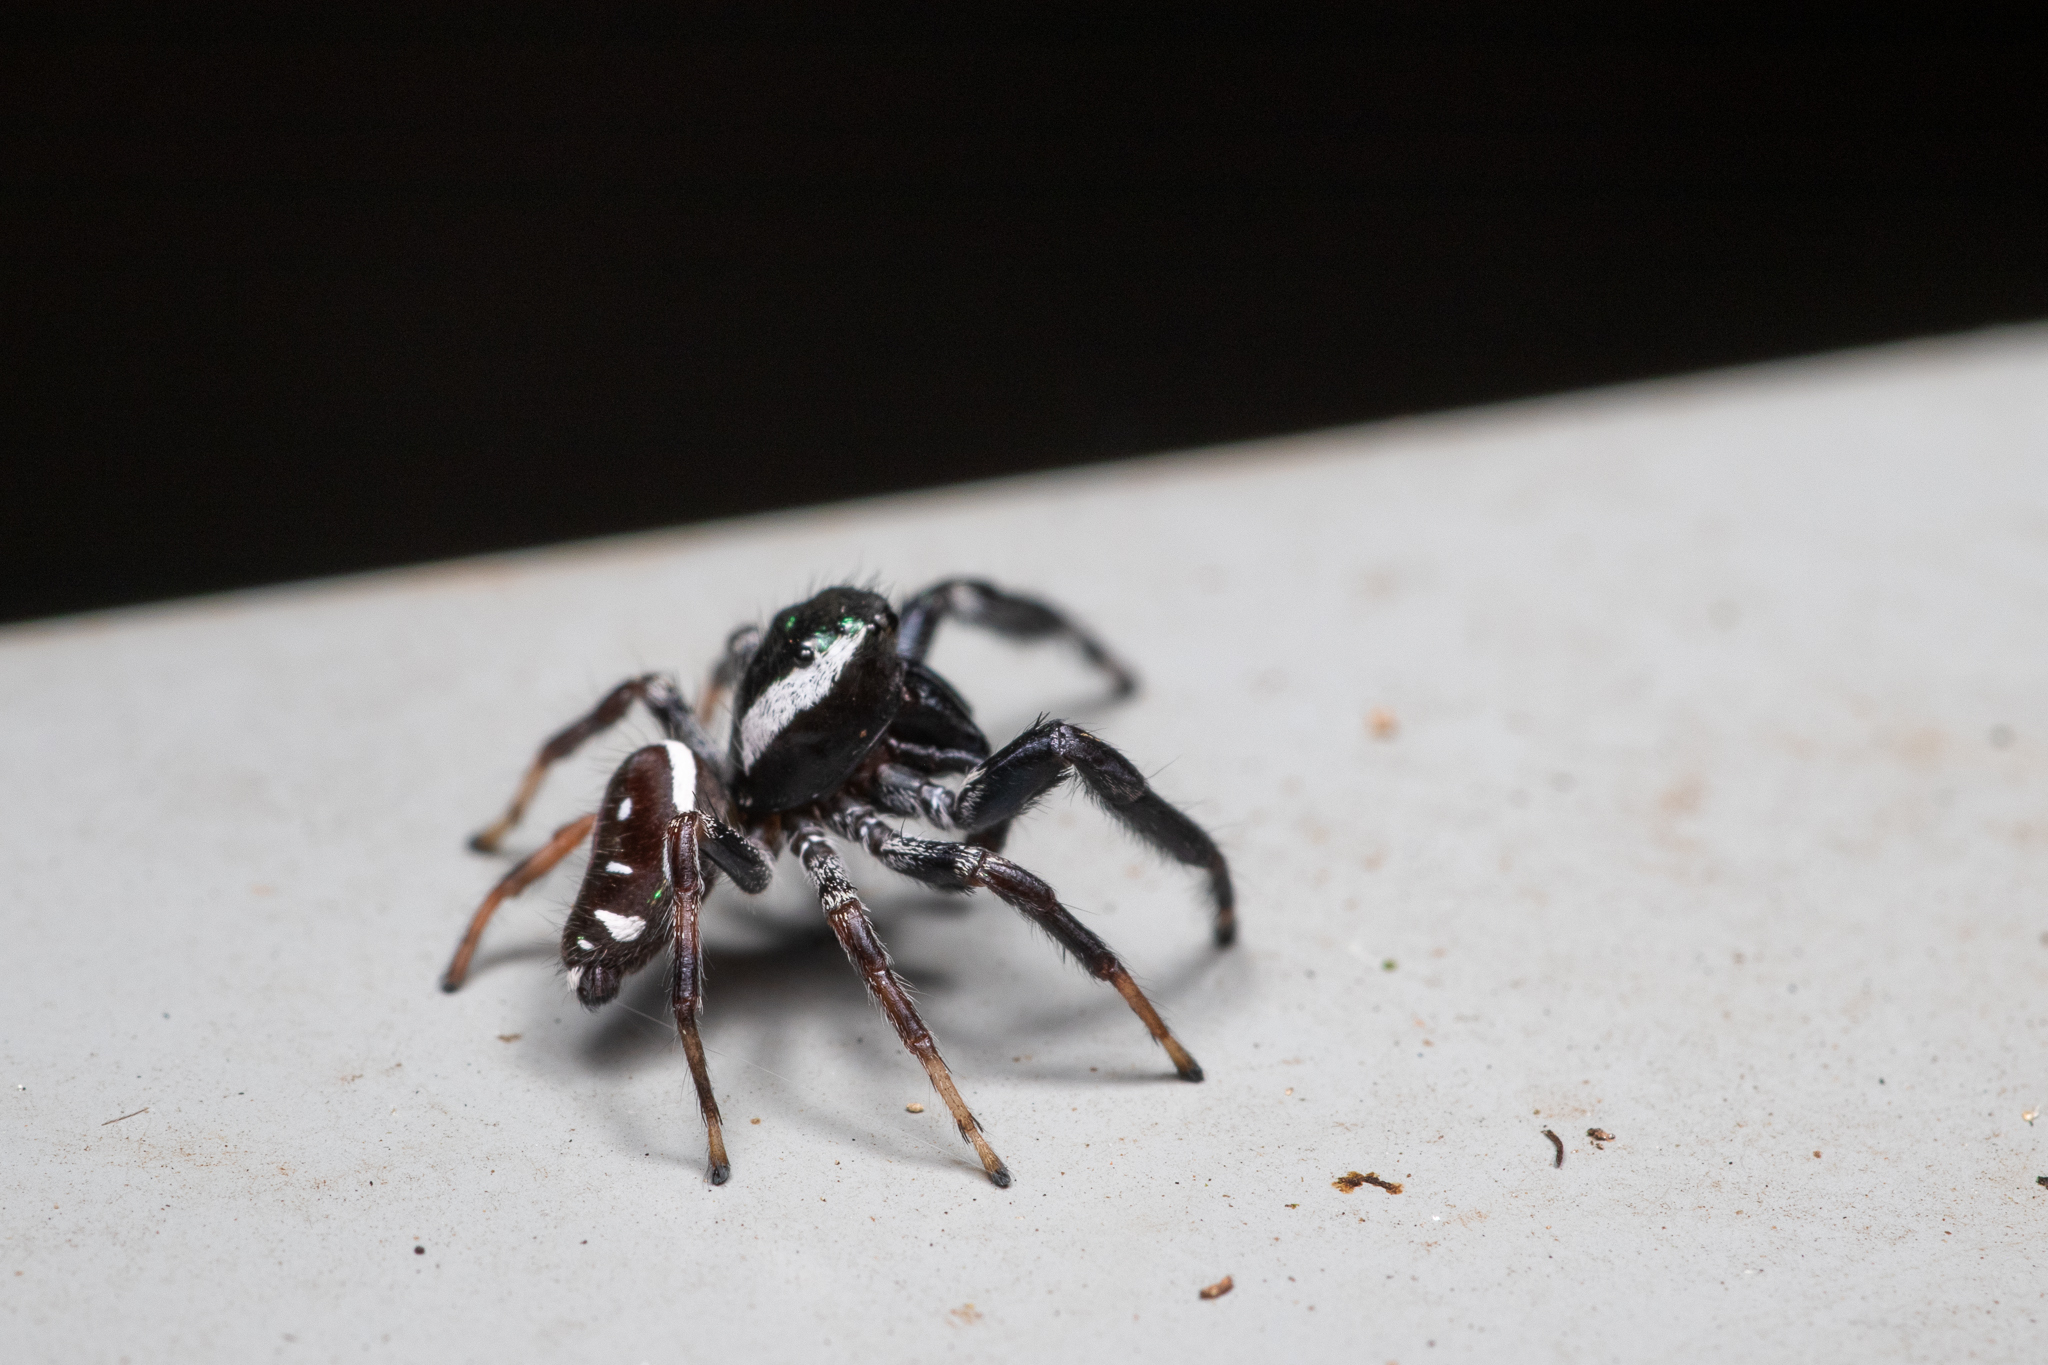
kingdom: Animalia
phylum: Arthropoda
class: Arachnida
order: Araneae
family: Salticidae
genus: Paraphidippus
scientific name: Paraphidippus aurantius
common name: Jumping spiders
